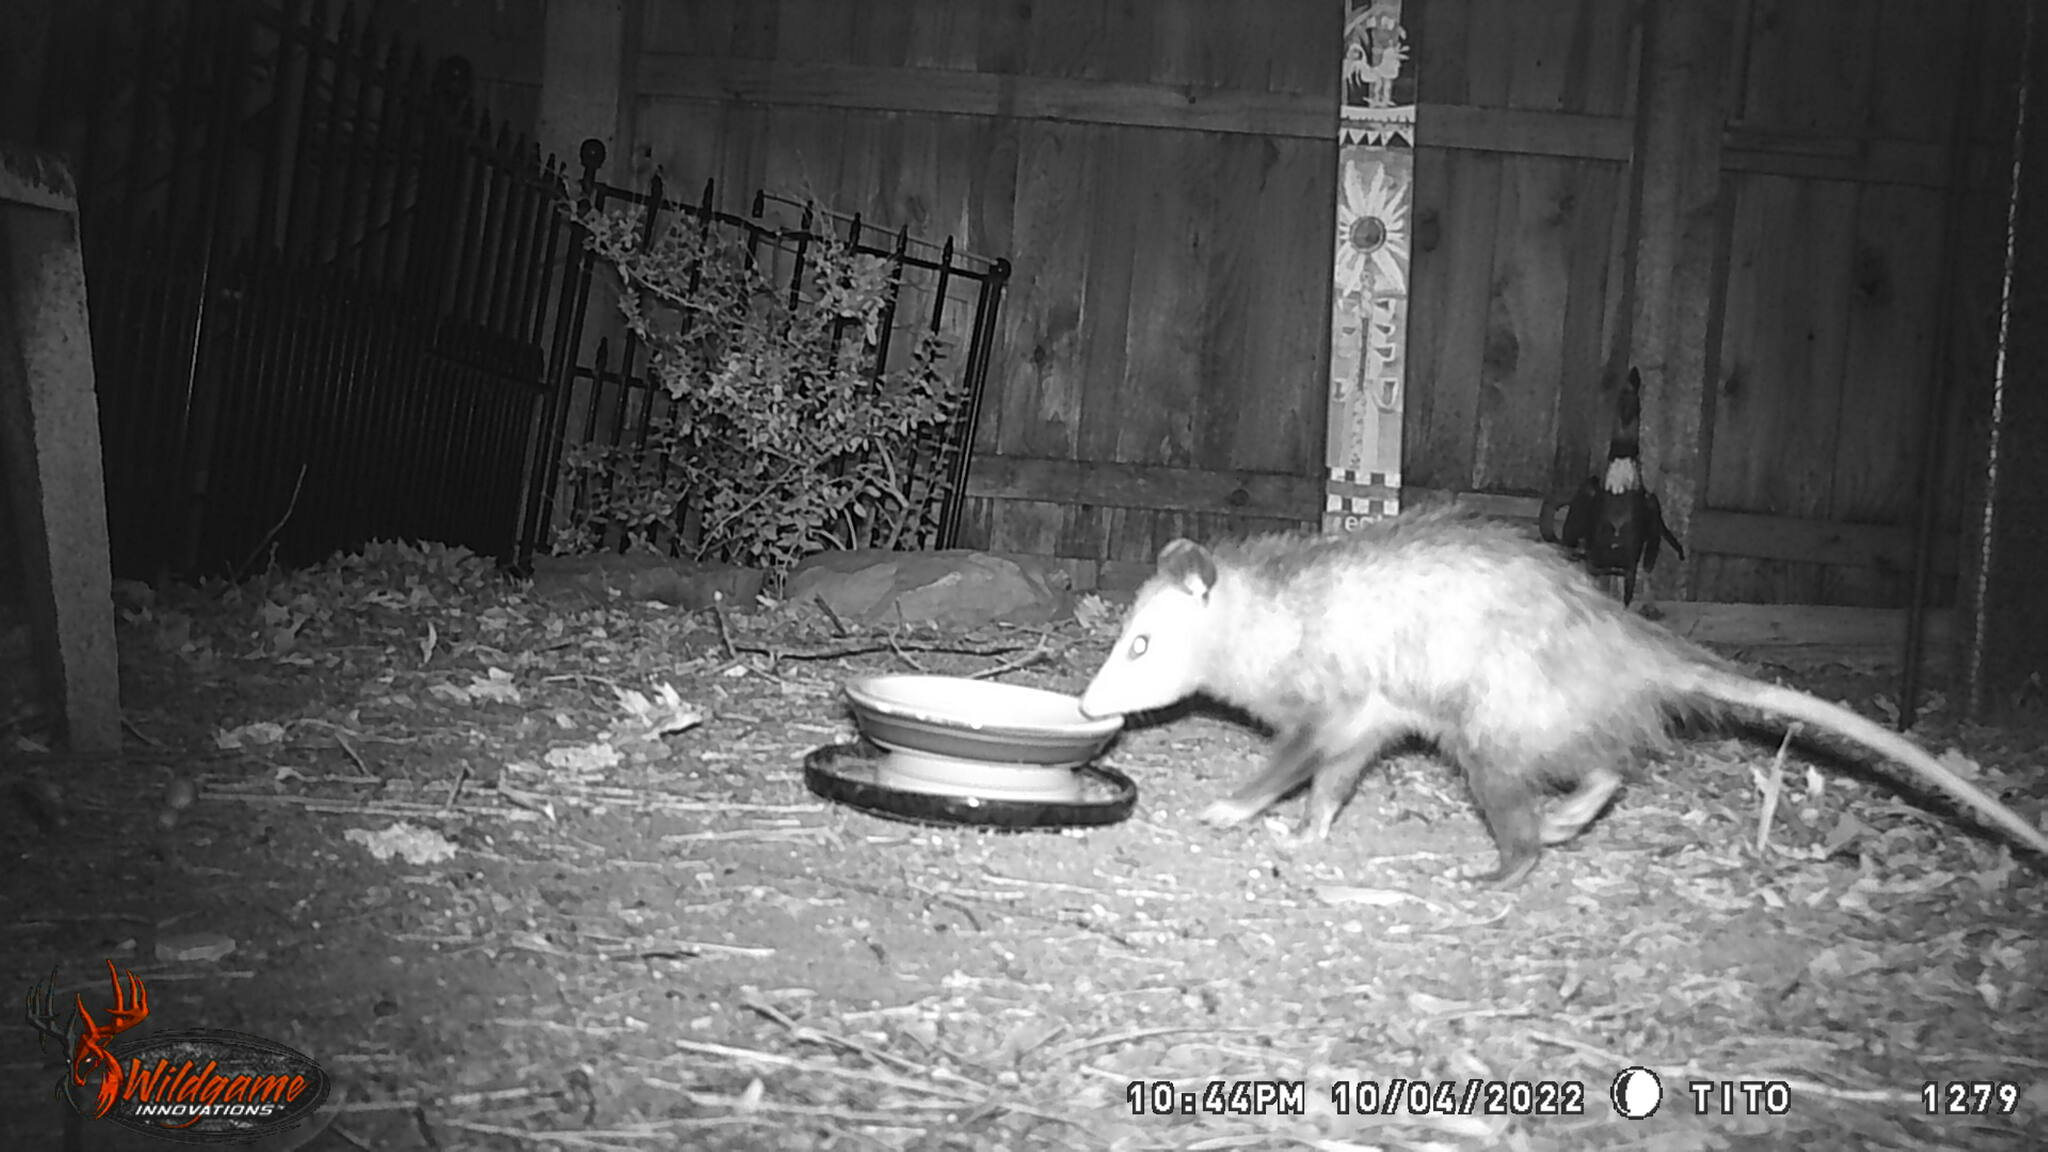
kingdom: Animalia
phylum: Chordata
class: Mammalia
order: Didelphimorphia
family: Didelphidae
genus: Didelphis
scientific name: Didelphis virginiana
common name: Virginia opossum
